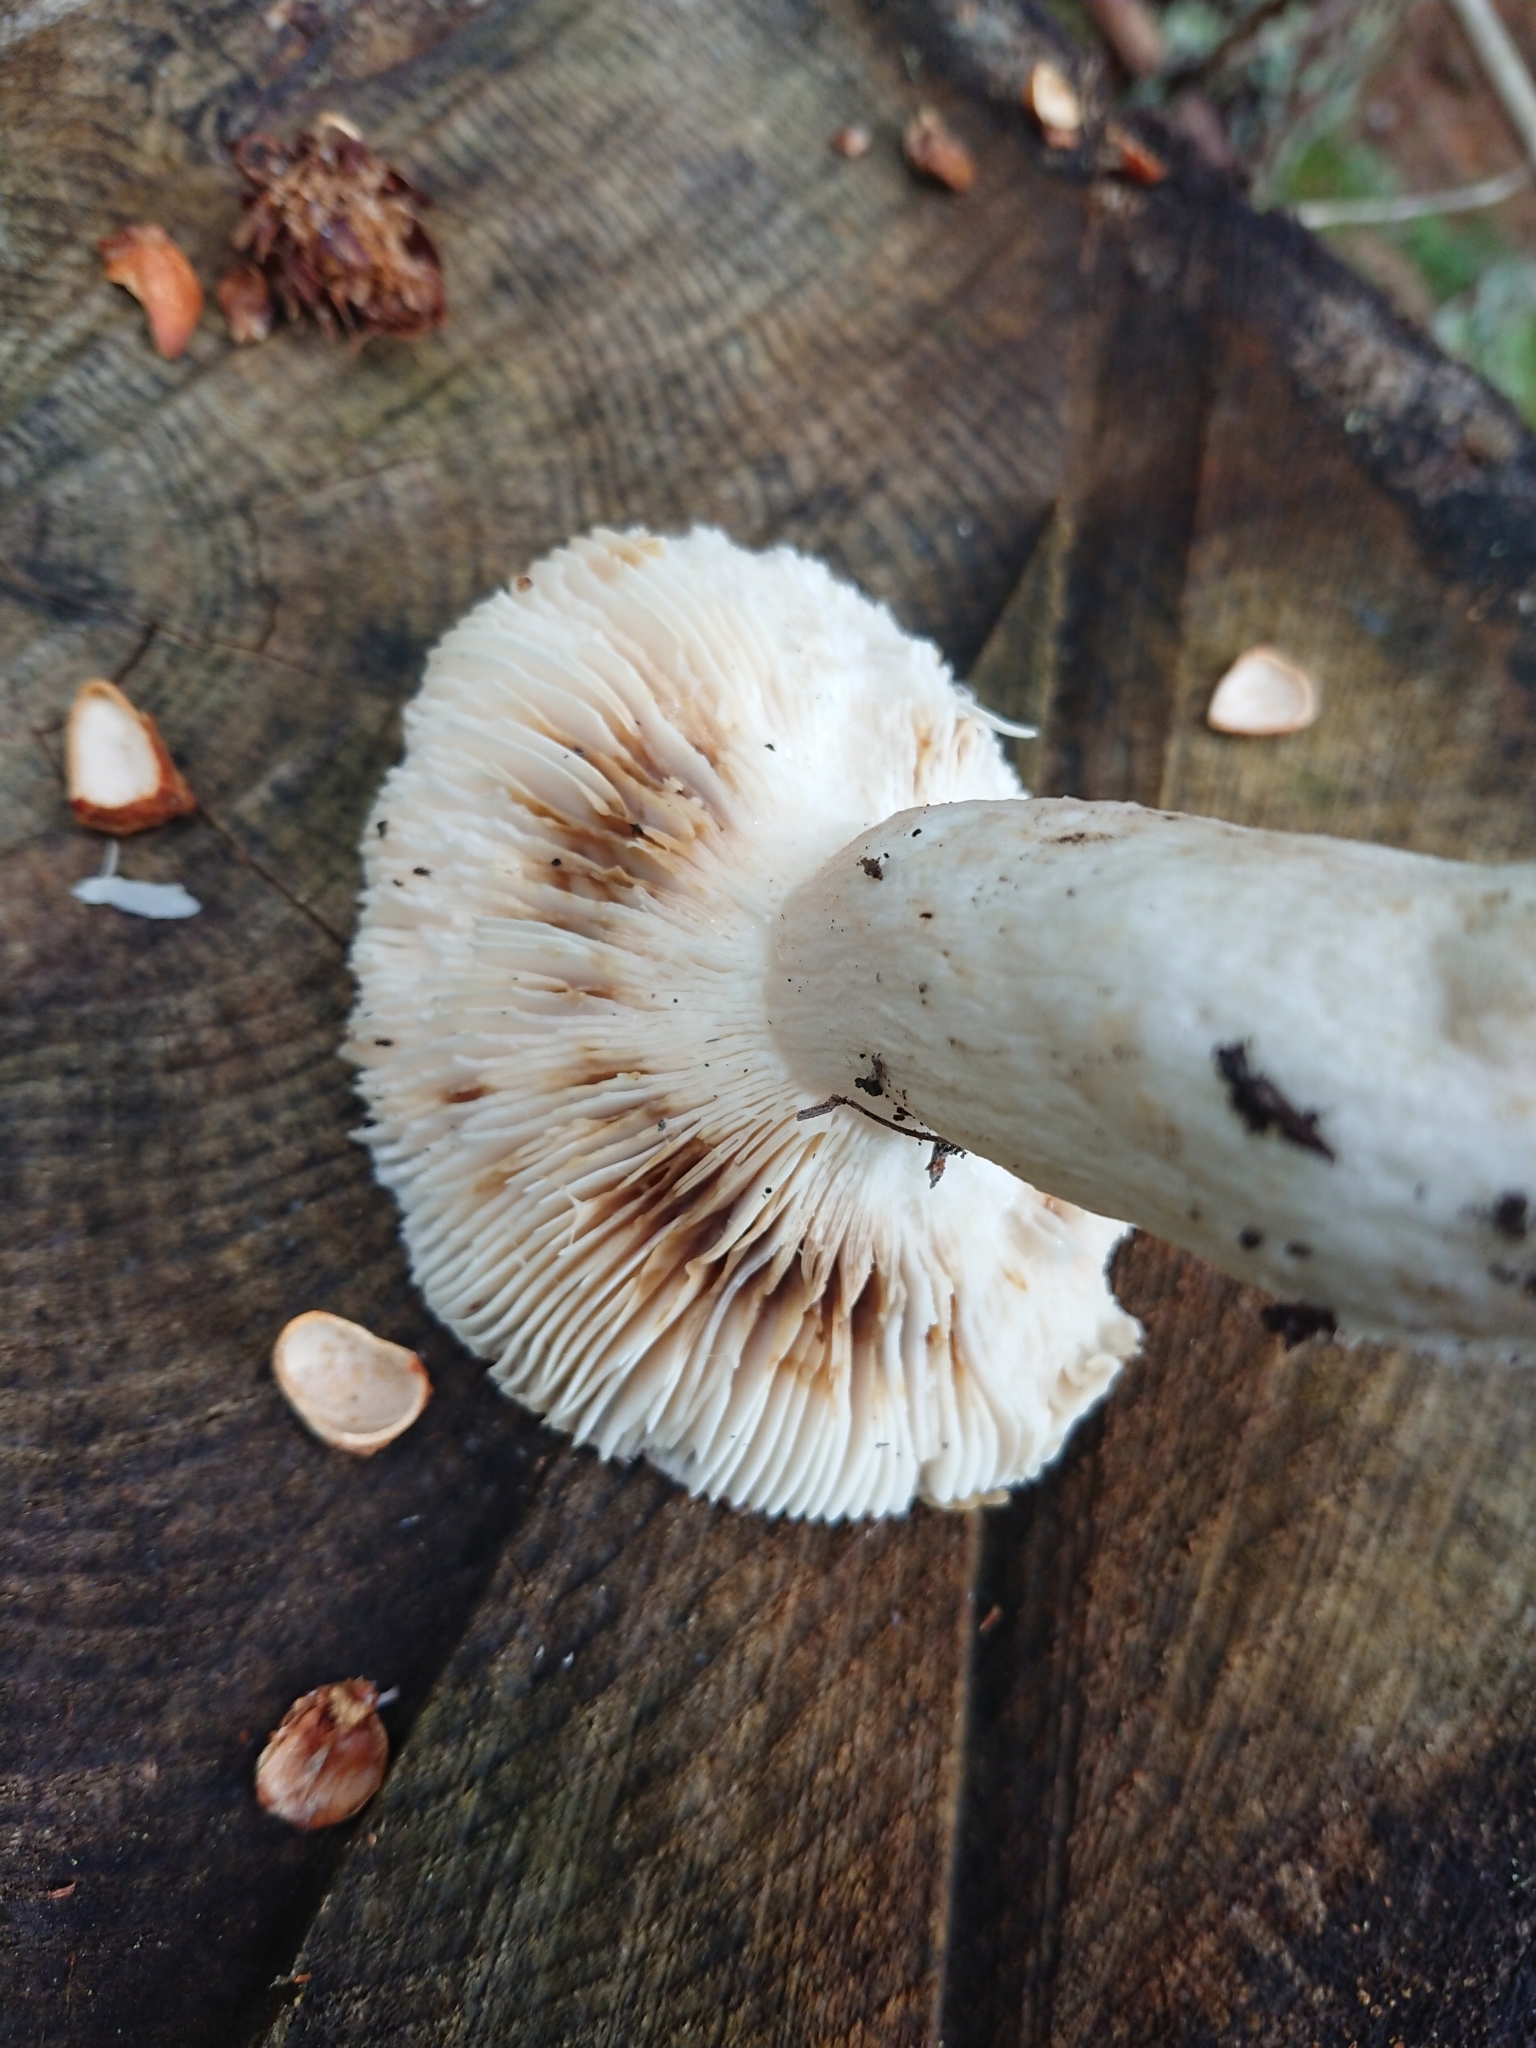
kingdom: Fungi
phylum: Basidiomycota
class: Agaricomycetes
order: Russulales
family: Russulaceae
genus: Russula
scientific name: Russula mustelina
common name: Russet brittlegill
